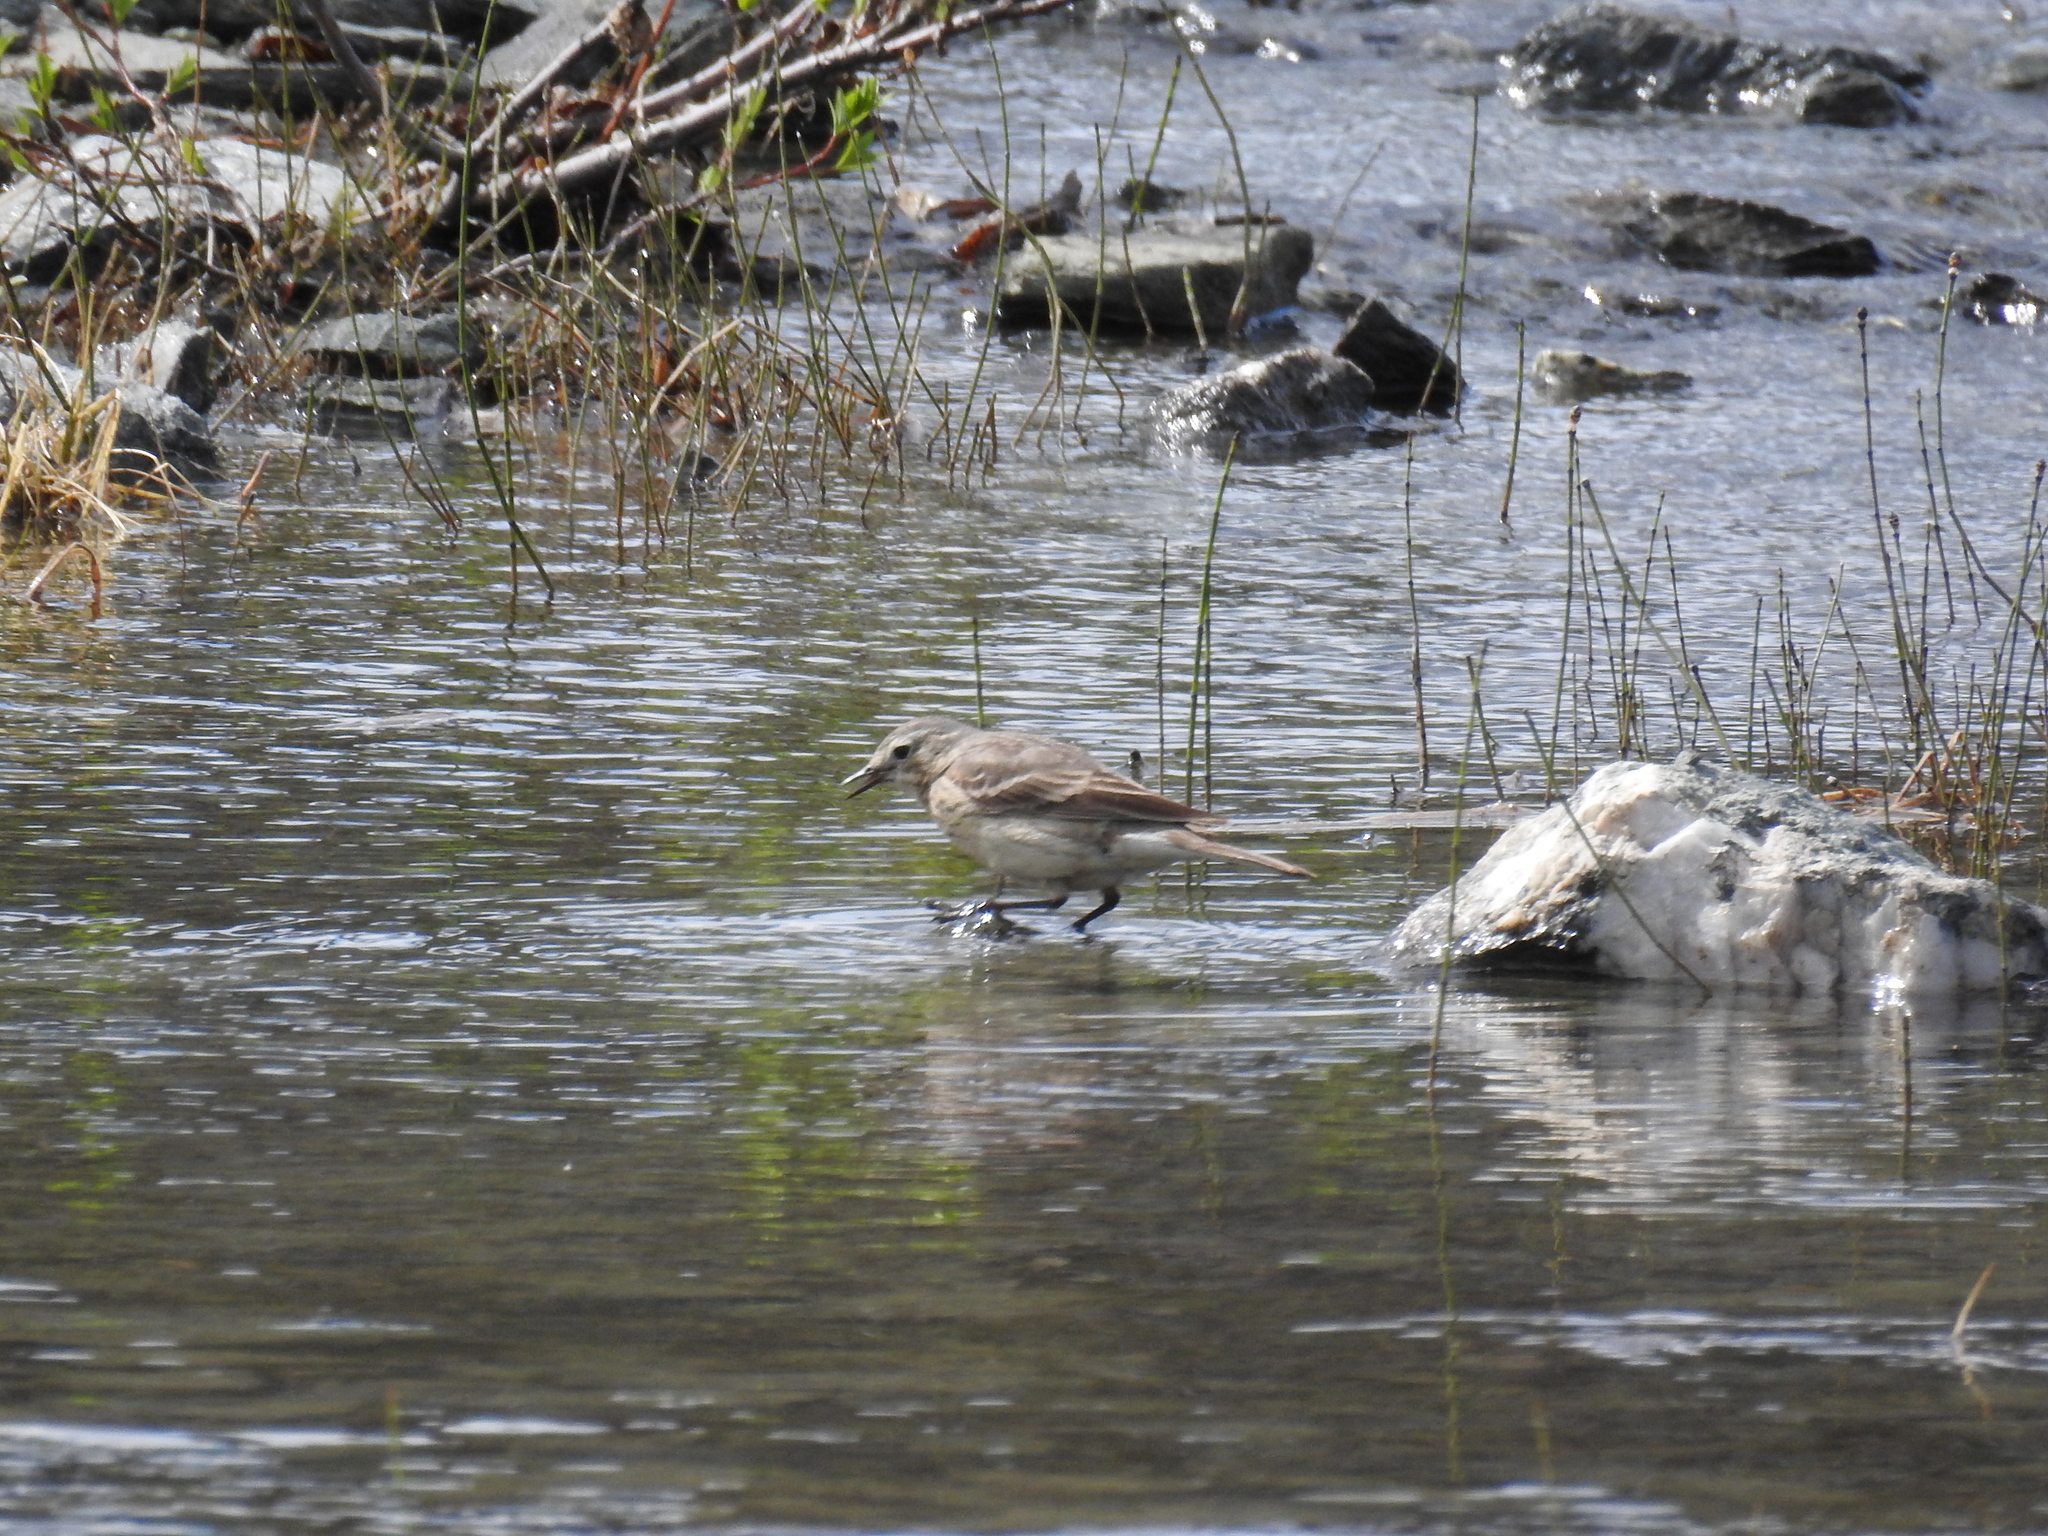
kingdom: Animalia
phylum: Chordata
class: Aves
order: Passeriformes
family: Motacillidae
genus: Anthus
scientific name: Anthus rubescens
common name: Buff-bellied pipit
